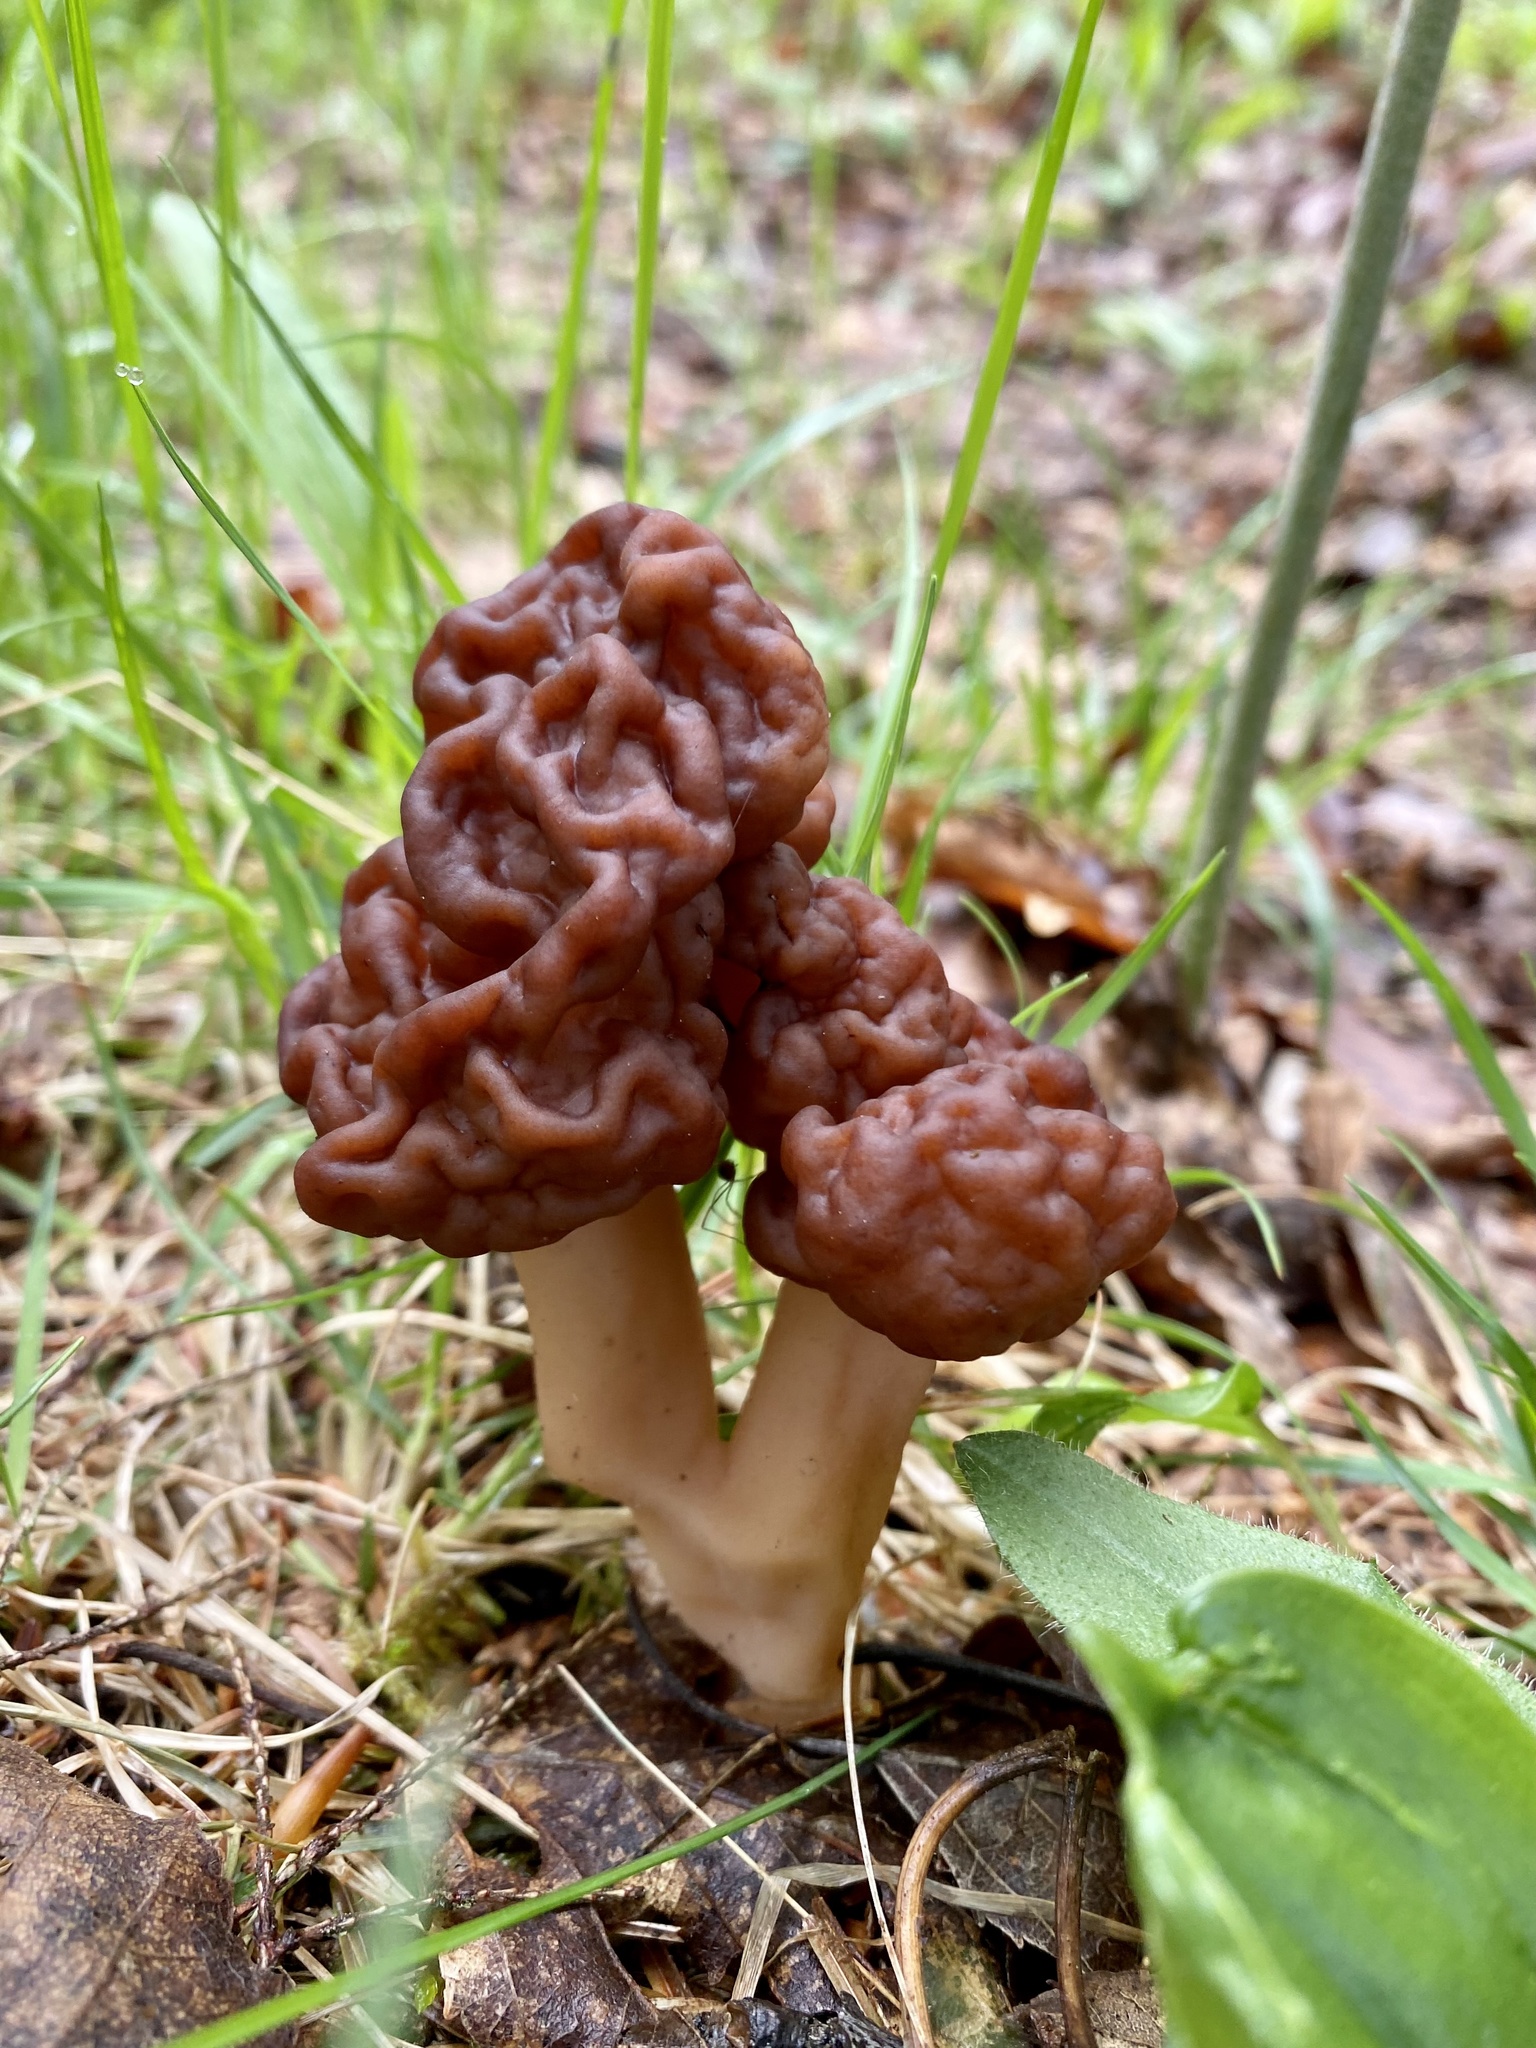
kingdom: Fungi
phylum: Ascomycota
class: Pezizomycetes
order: Pezizales
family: Discinaceae
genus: Gyromitra
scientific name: Gyromitra esculenta
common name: False morel
